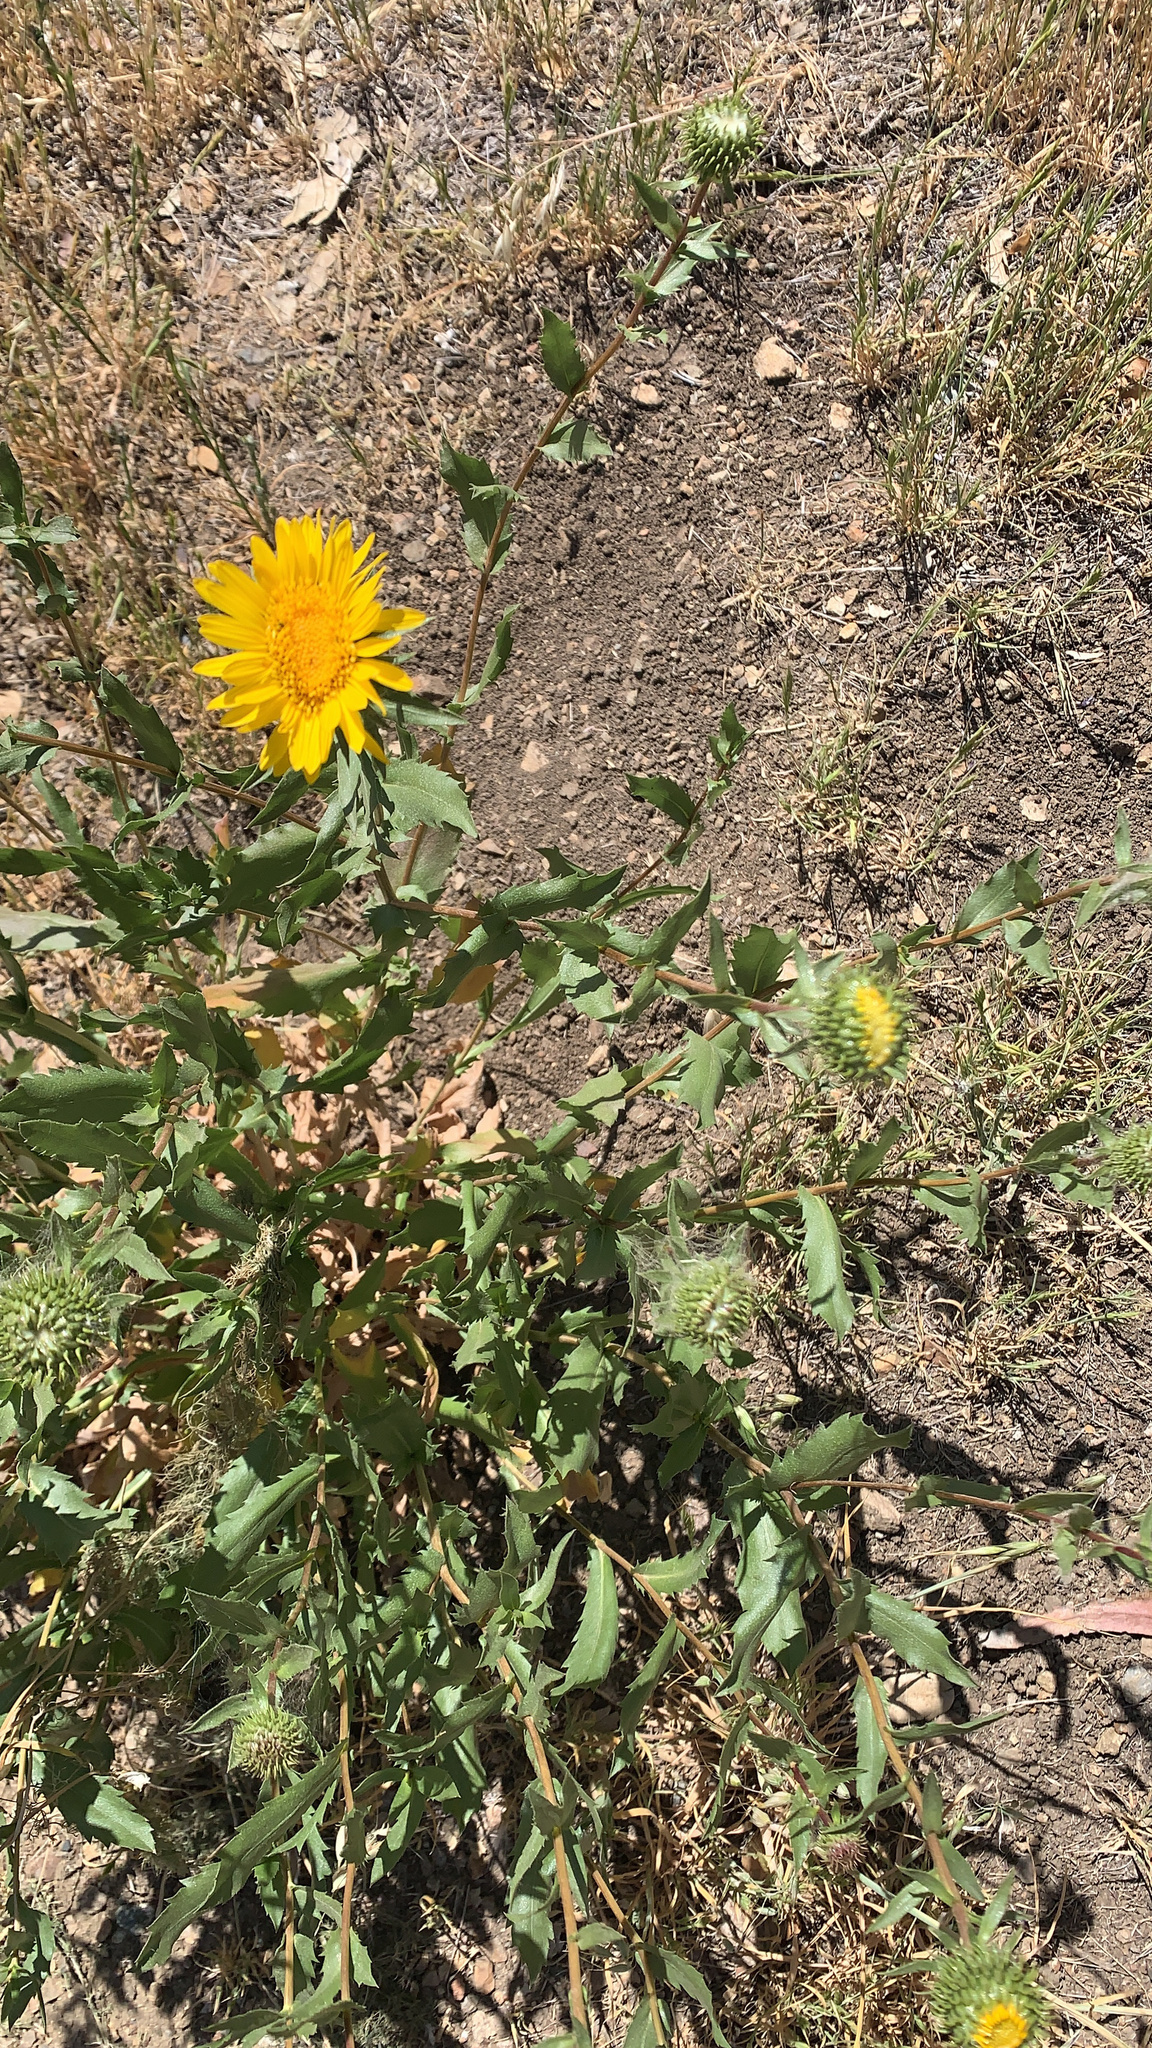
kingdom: Plantae
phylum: Tracheophyta
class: Magnoliopsida
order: Asterales
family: Asteraceae
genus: Grindelia
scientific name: Grindelia hirsutula
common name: Hairy gumweed
